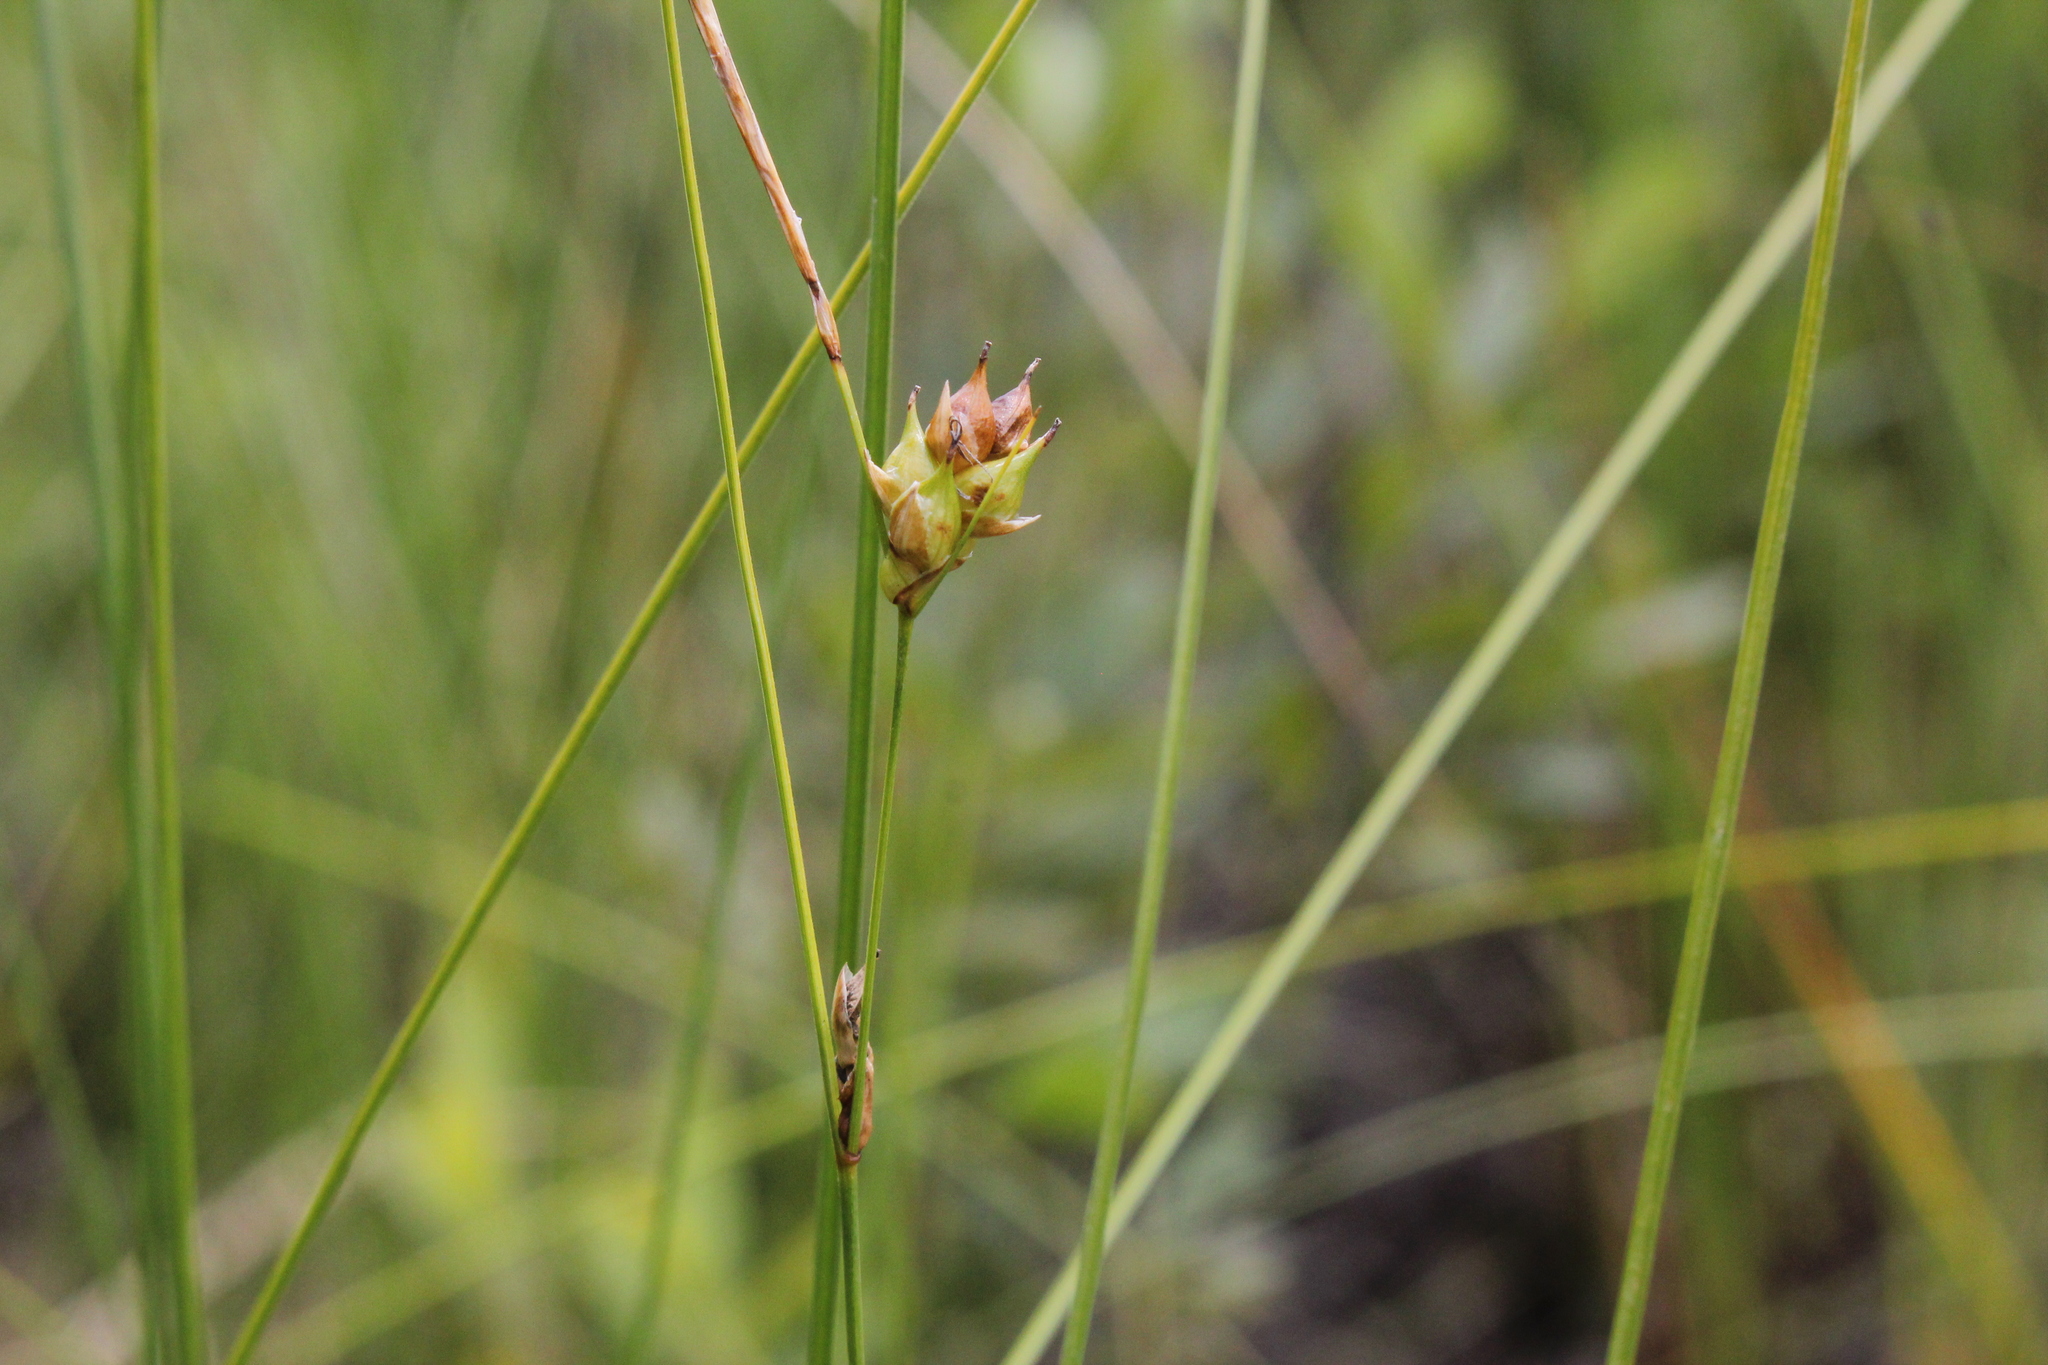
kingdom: Plantae
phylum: Tracheophyta
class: Liliopsida
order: Poales
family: Cyperaceae
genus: Carex
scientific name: Carex oligosperma
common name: Few-seed sedge
